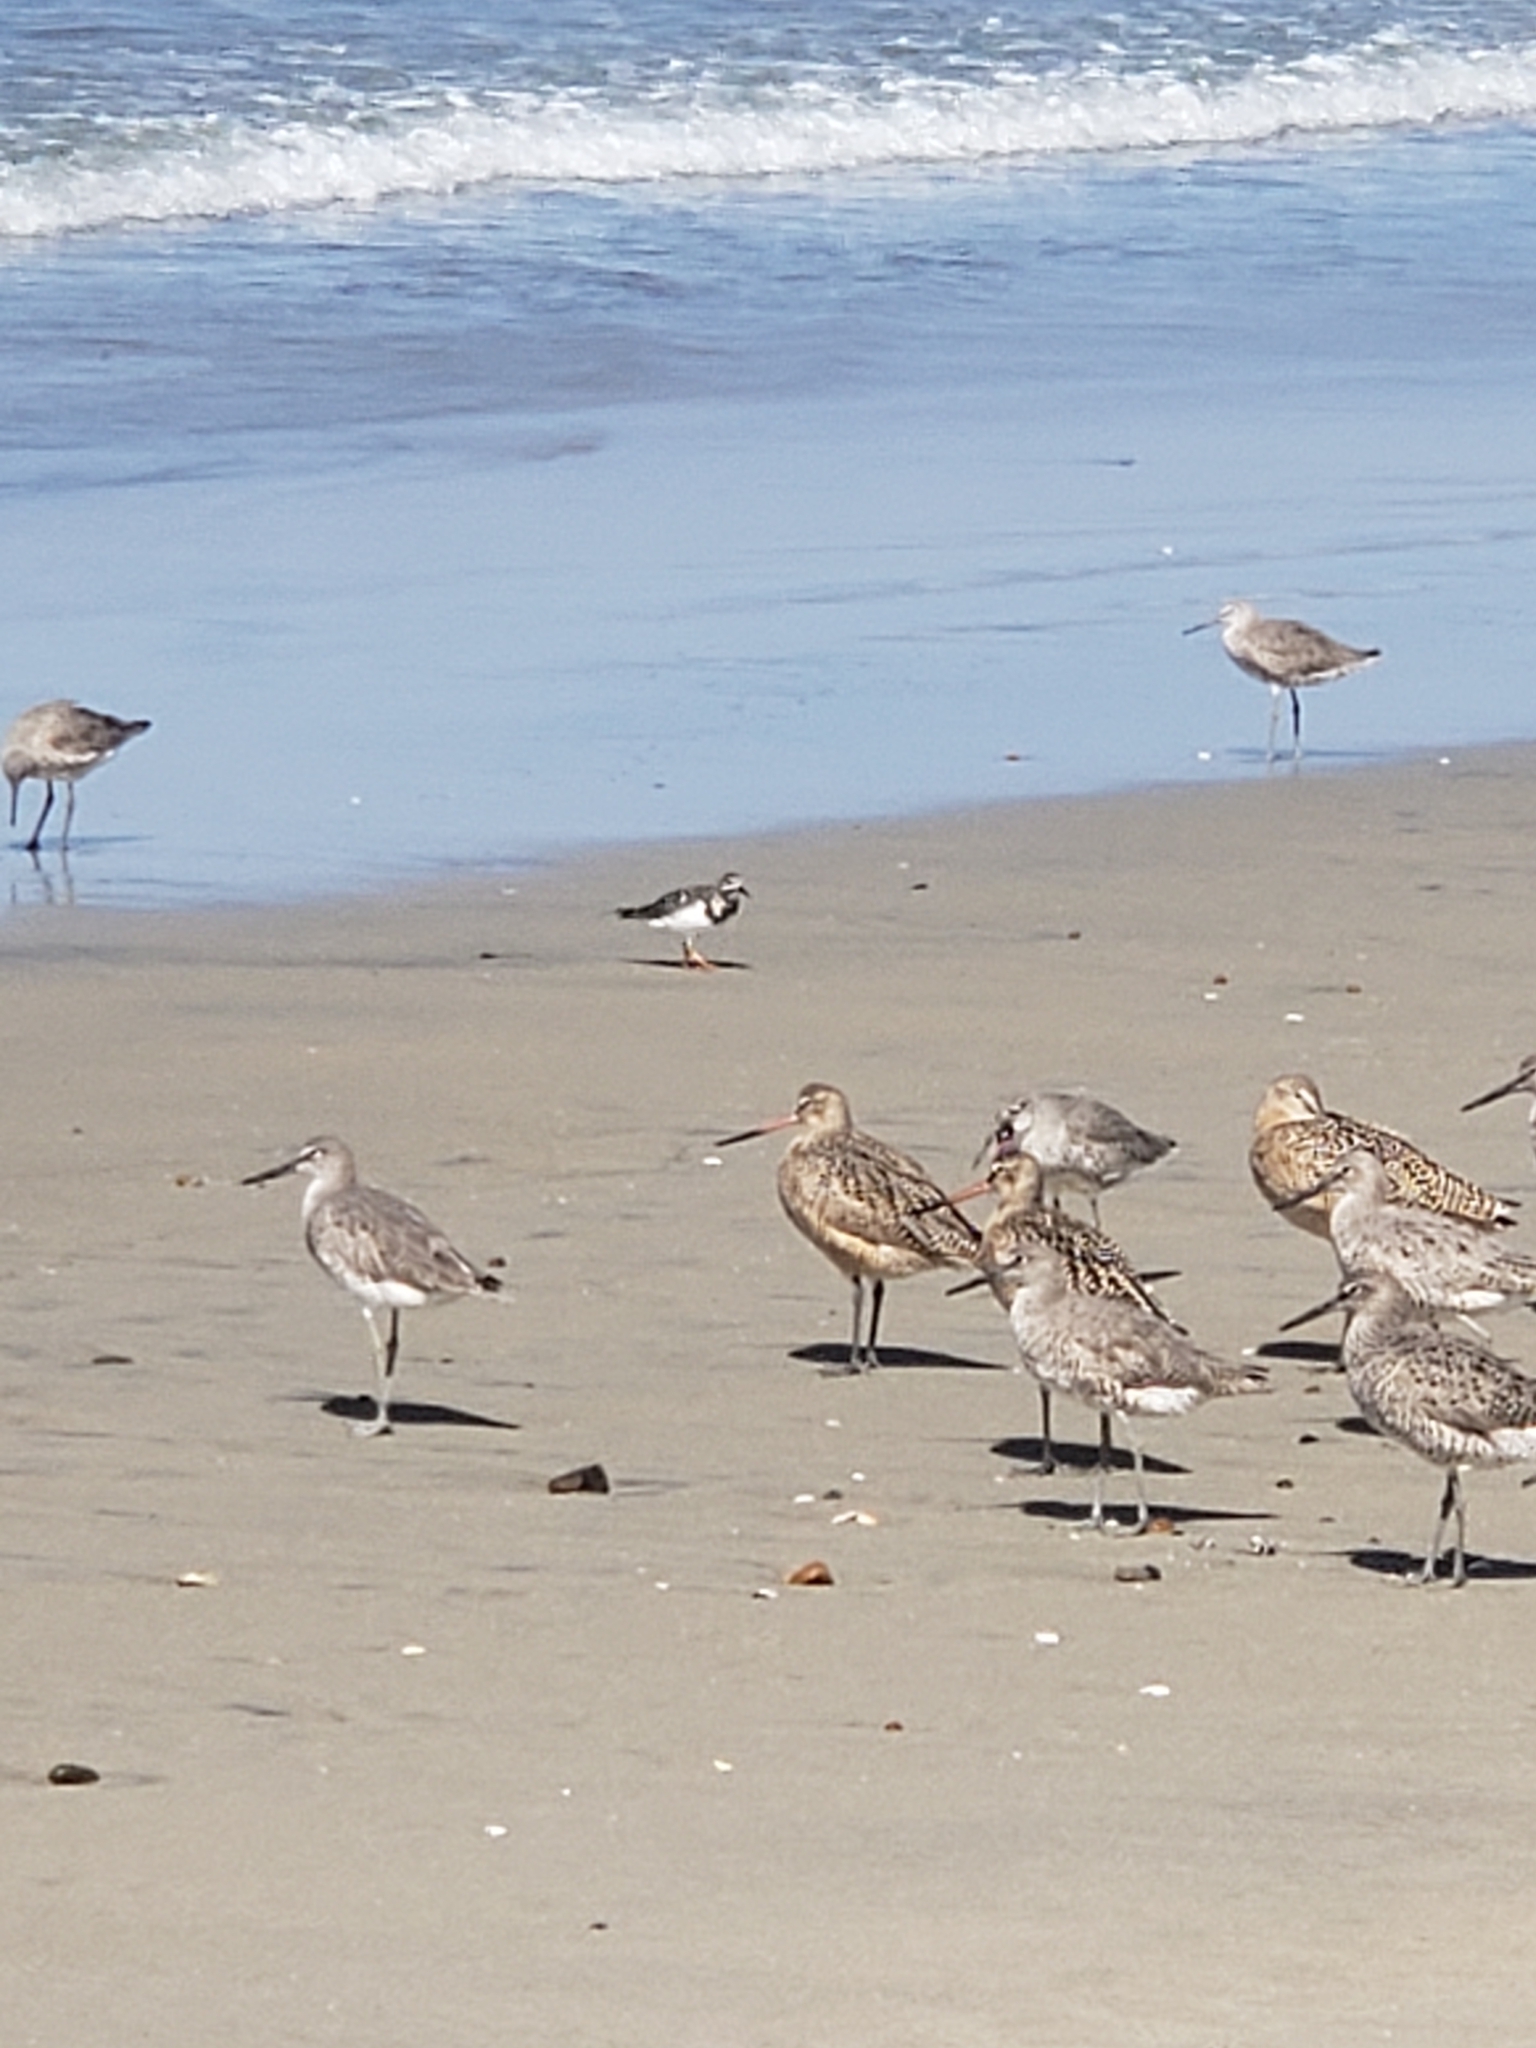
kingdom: Animalia
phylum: Chordata
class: Aves
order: Charadriiformes
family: Scolopacidae
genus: Arenaria
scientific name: Arenaria interpres
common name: Ruddy turnstone
